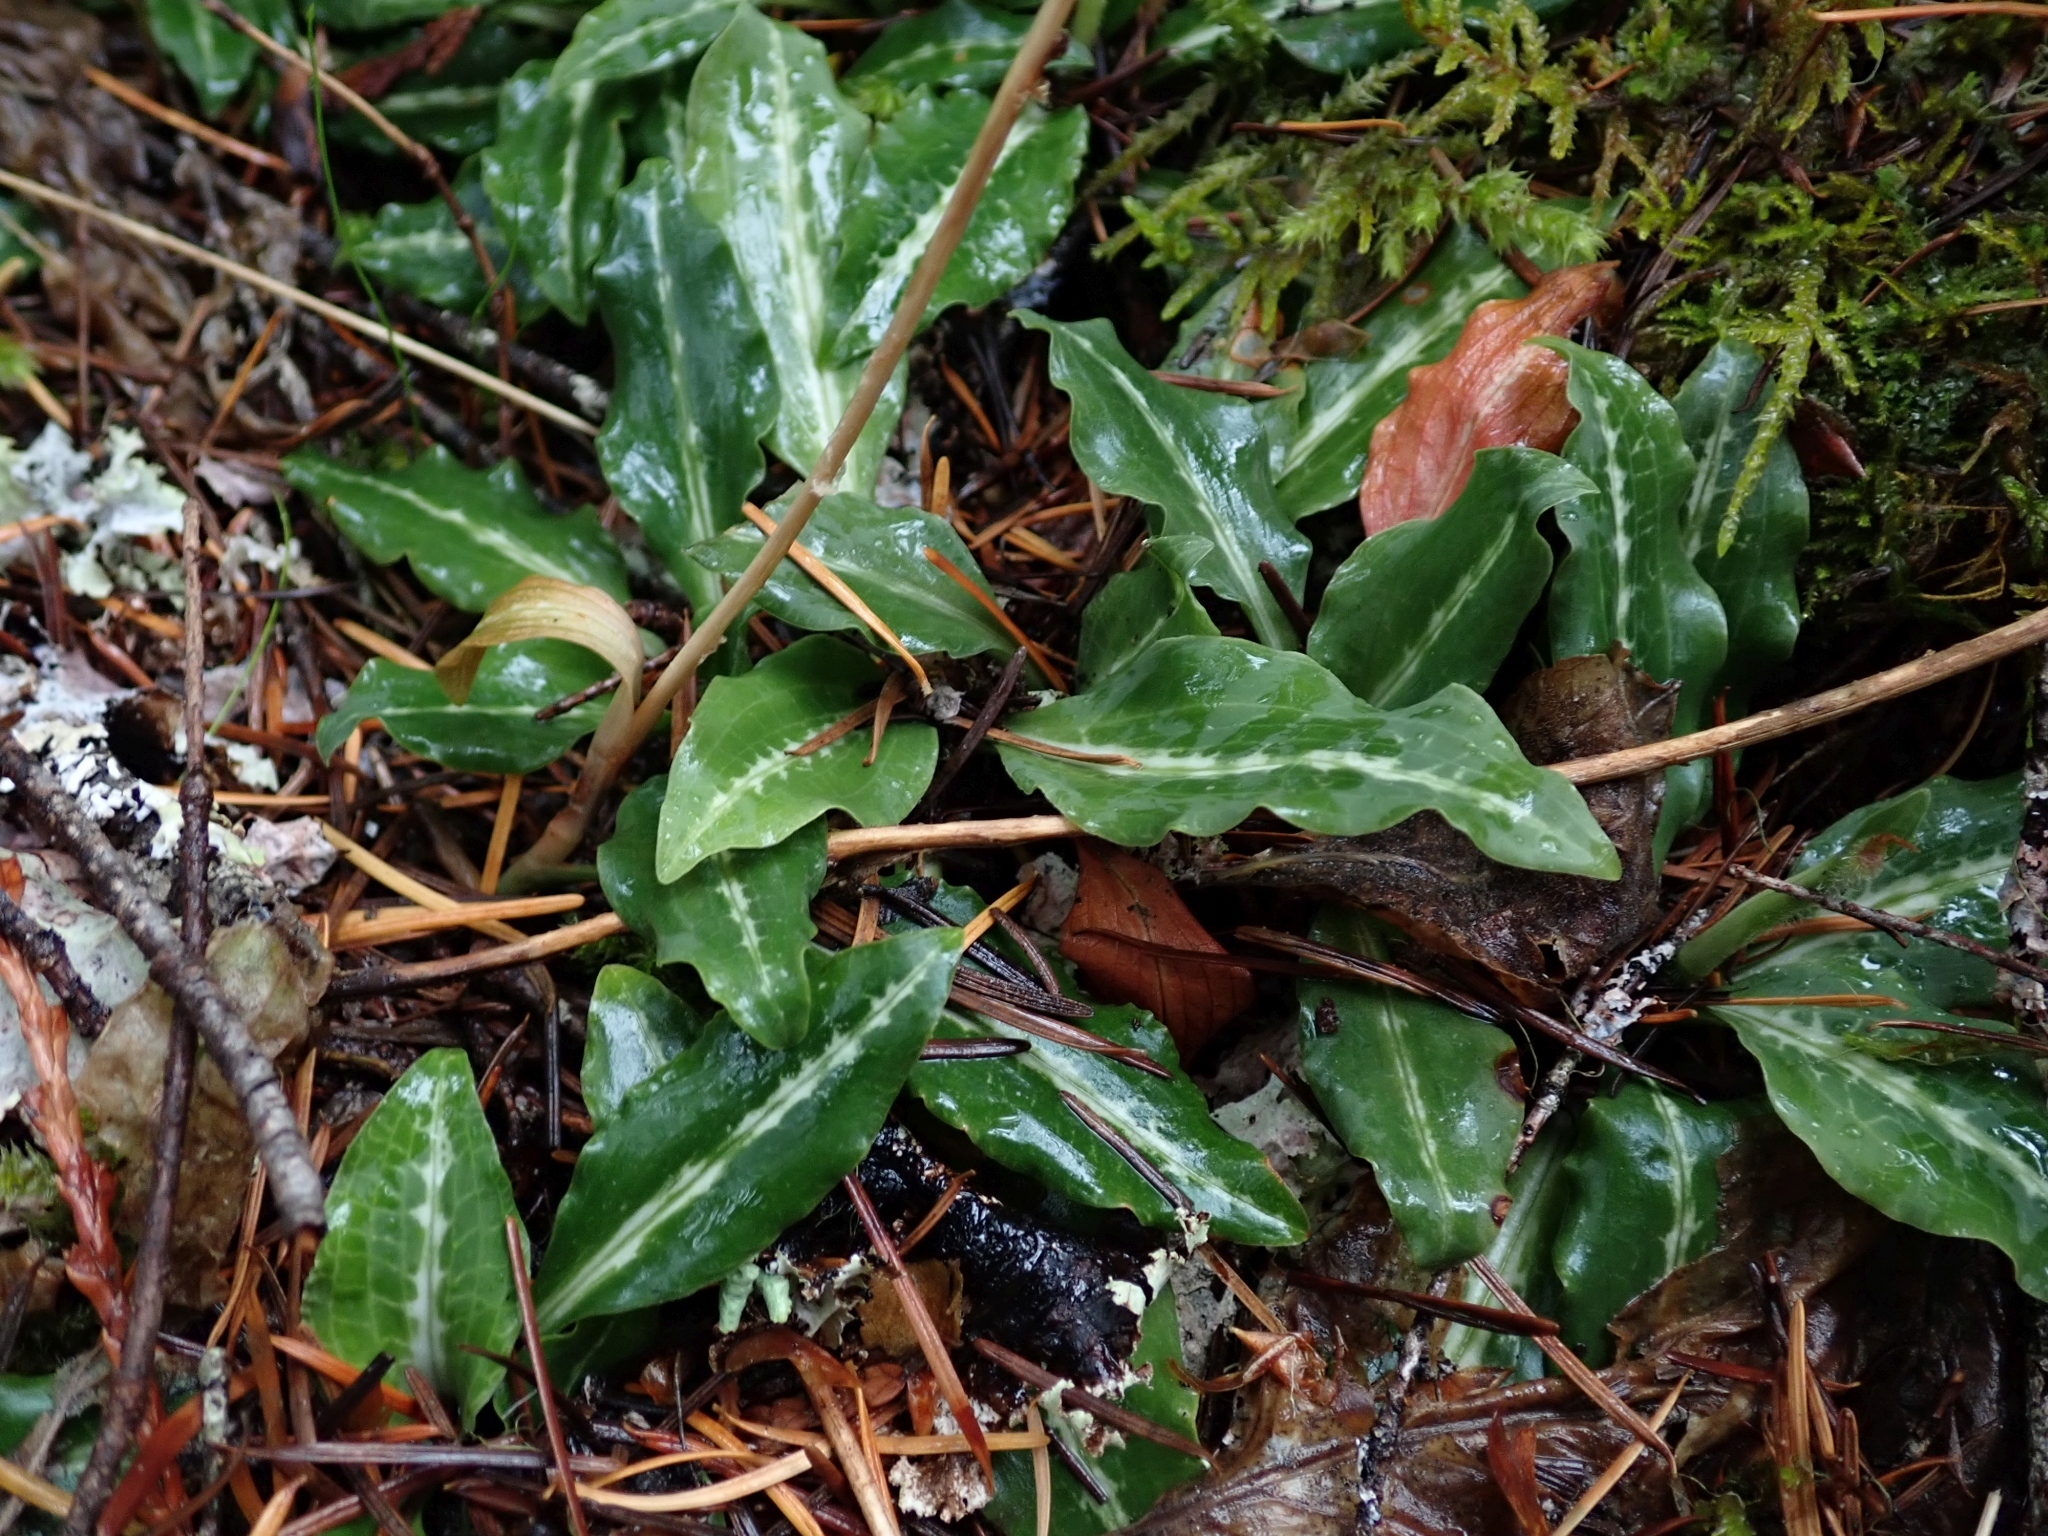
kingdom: Plantae
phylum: Tracheophyta
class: Liliopsida
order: Asparagales
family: Orchidaceae
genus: Goodyera
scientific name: Goodyera oblongifolia
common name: Giant rattlesnake-plantain
